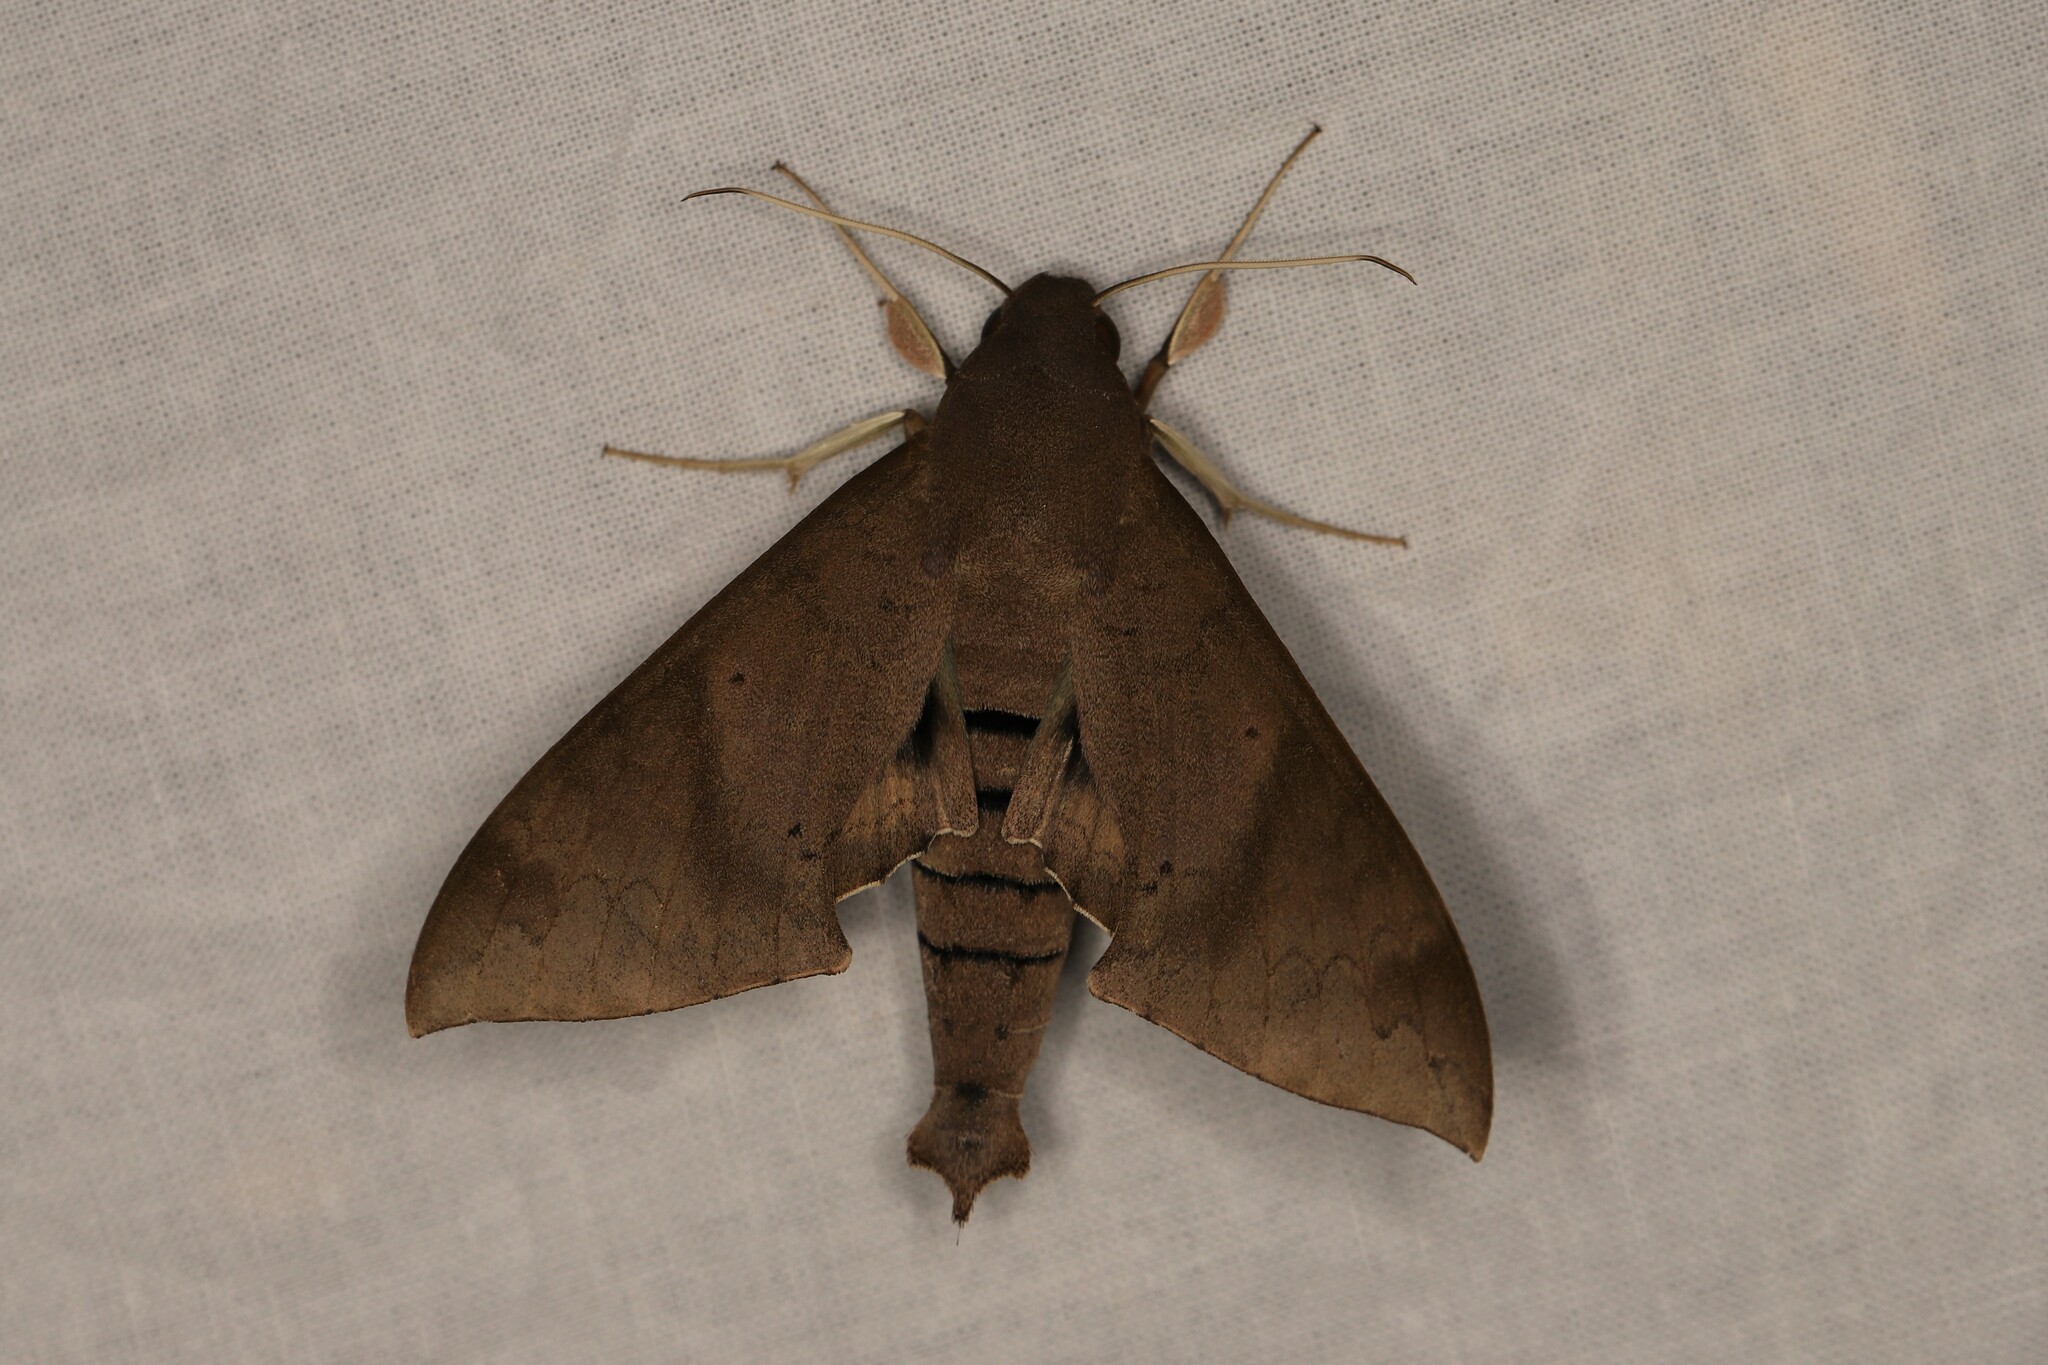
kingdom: Animalia
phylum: Arthropoda
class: Insecta
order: Lepidoptera
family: Sphingidae
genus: Pachylioides
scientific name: Pachylioides resumens
